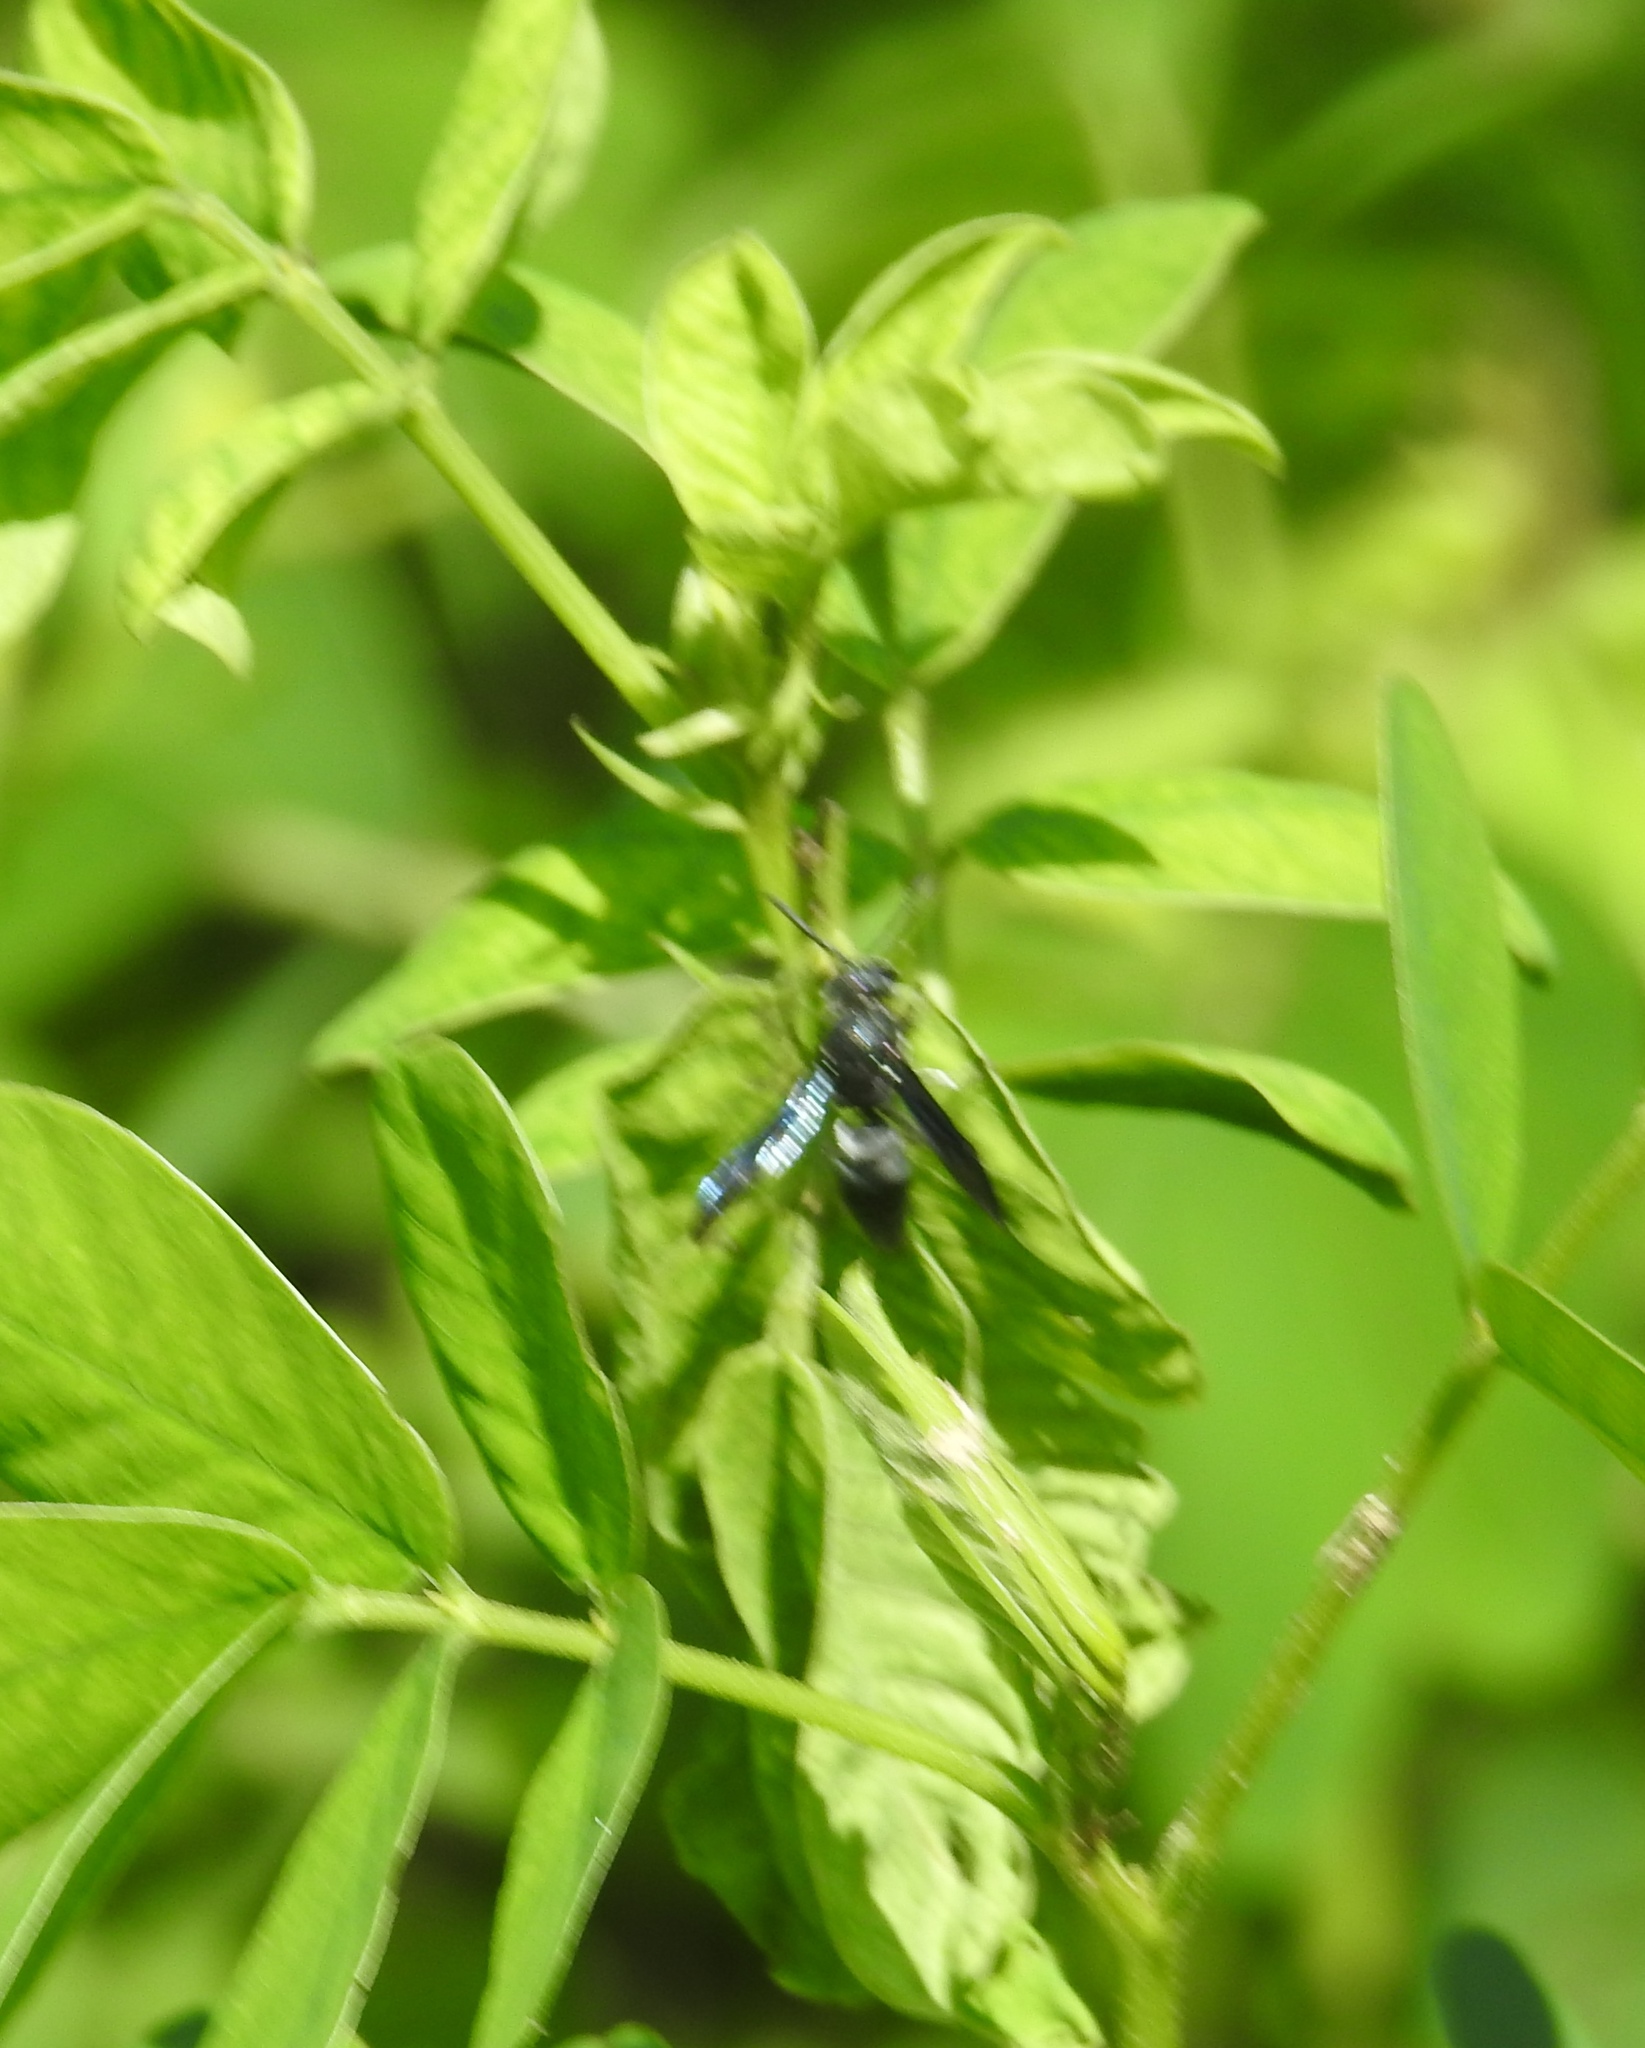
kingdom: Animalia
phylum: Arthropoda
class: Insecta
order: Hymenoptera
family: Eumenidae
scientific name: Eumenidae
